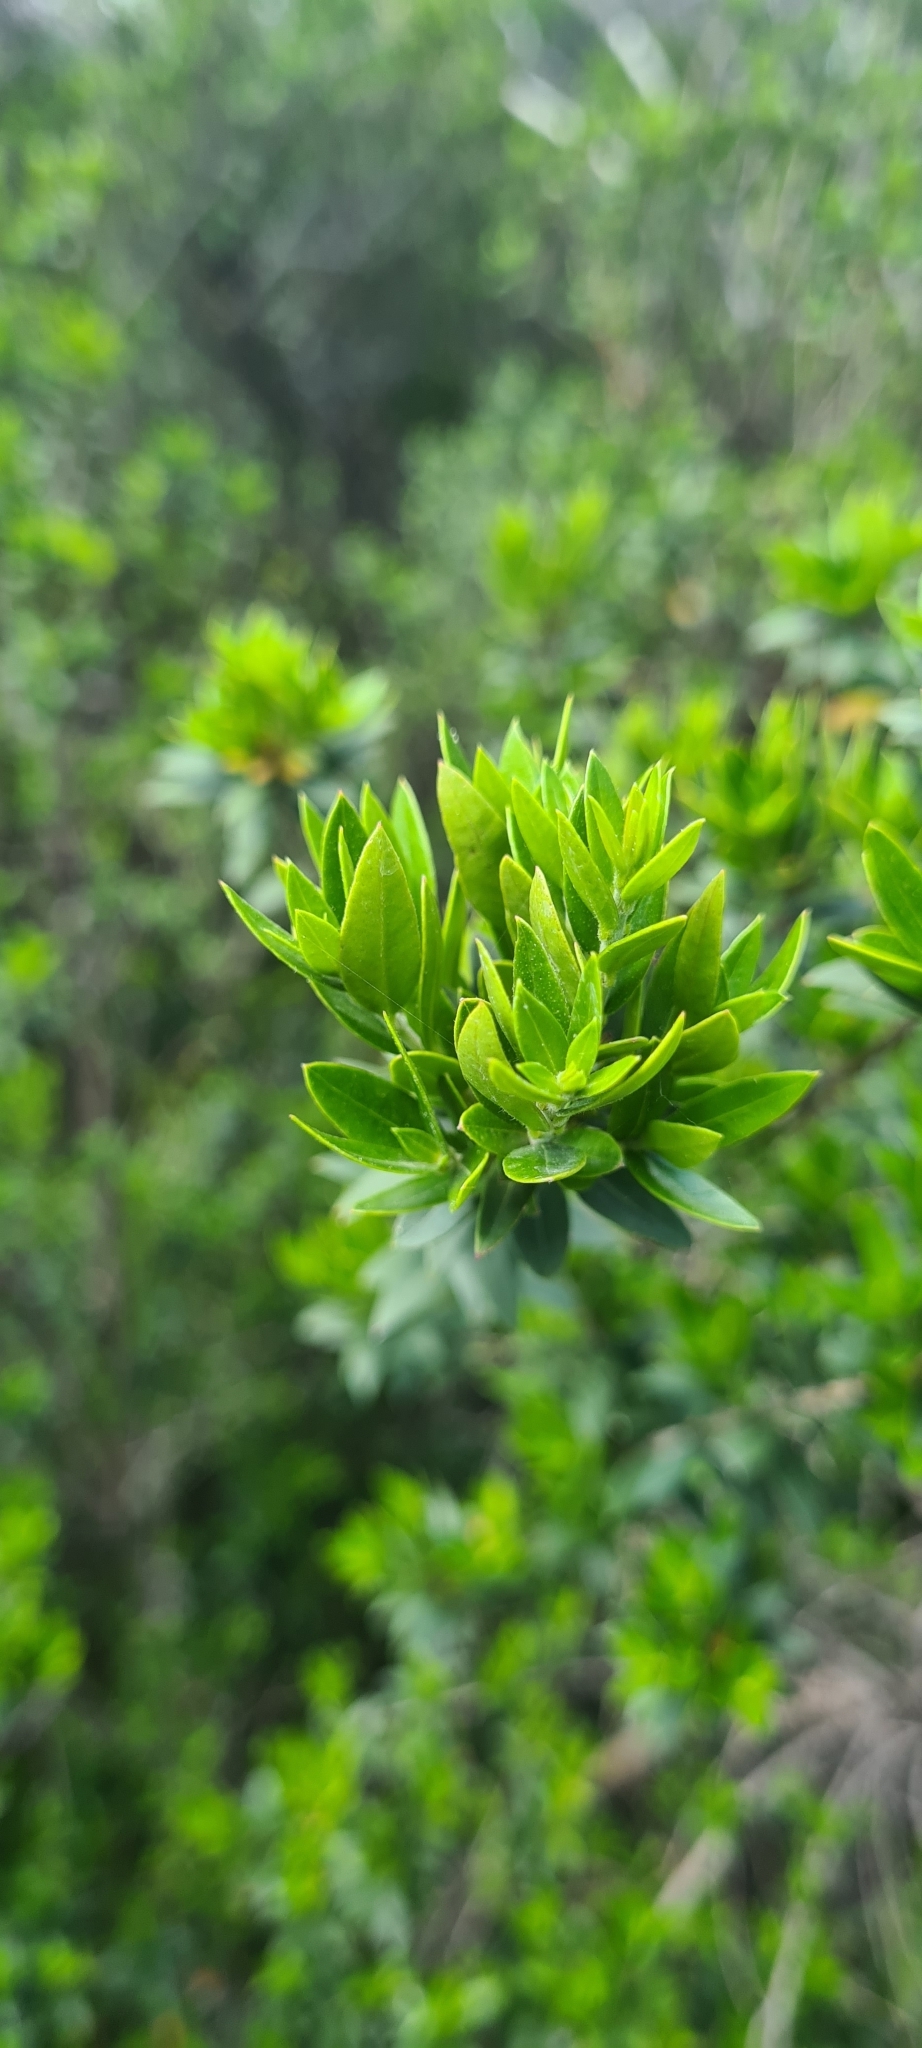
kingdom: Plantae
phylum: Tracheophyta
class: Magnoliopsida
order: Myrtales
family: Myrtaceae
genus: Myrtus
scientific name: Myrtus communis
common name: Myrtle
